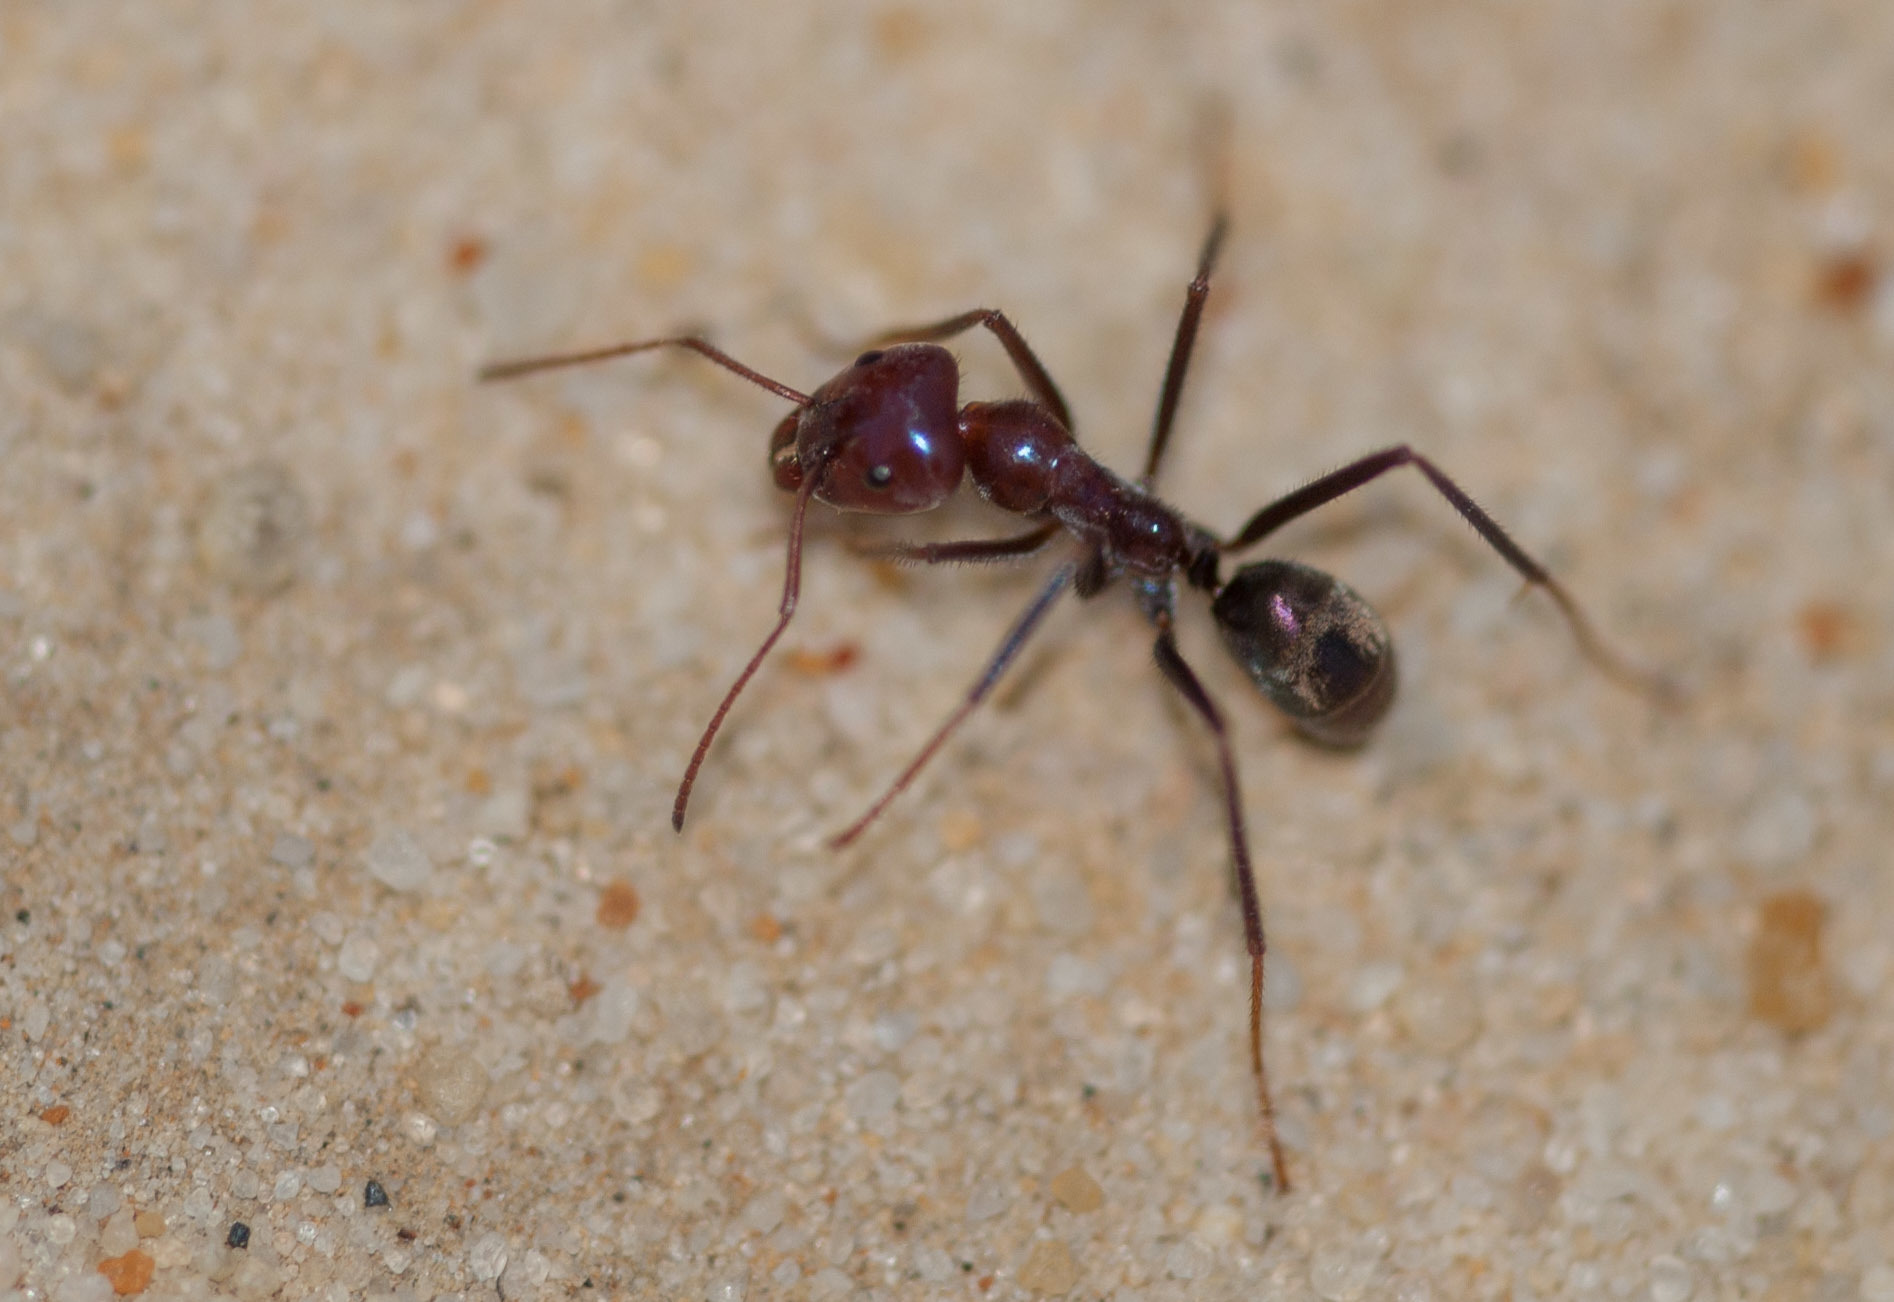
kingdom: Animalia
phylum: Arthropoda
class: Insecta
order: Hymenoptera
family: Formicidae
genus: Iridomyrmex
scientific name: Iridomyrmex purpureus
